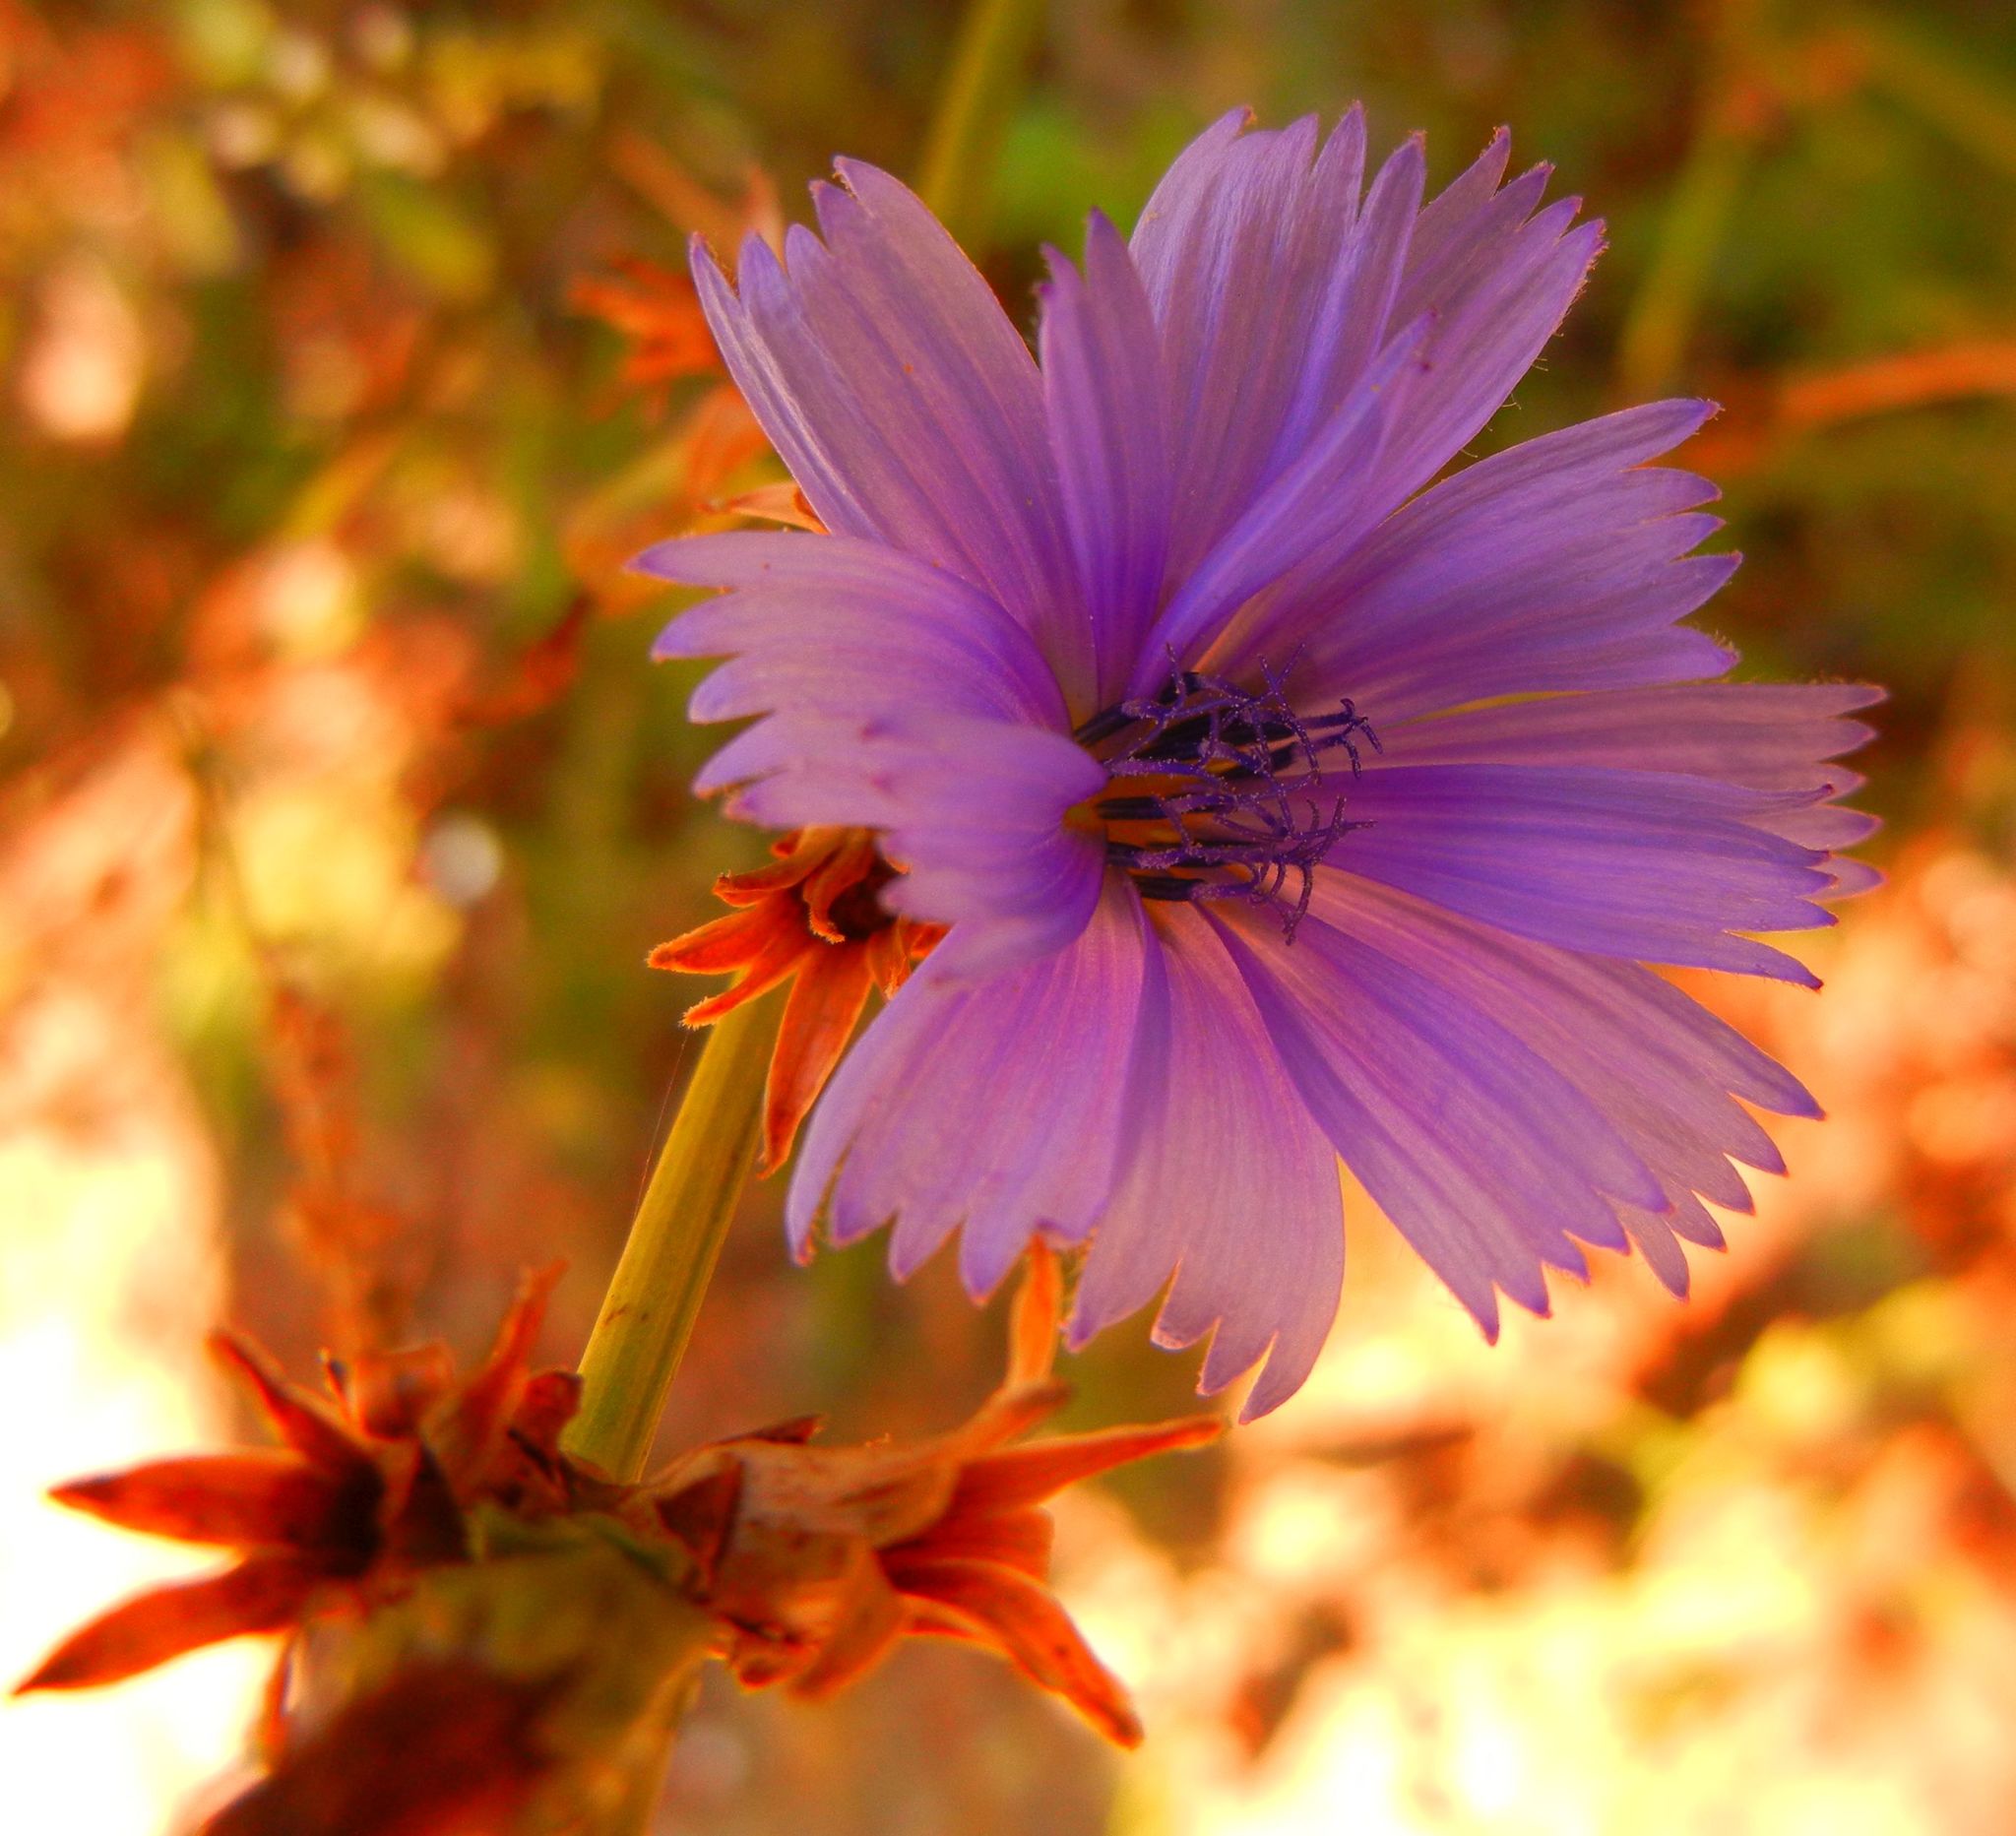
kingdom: Plantae
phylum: Tracheophyta
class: Magnoliopsida
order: Asterales
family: Asteraceae
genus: Cichorium
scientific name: Cichorium intybus
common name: Chicory
